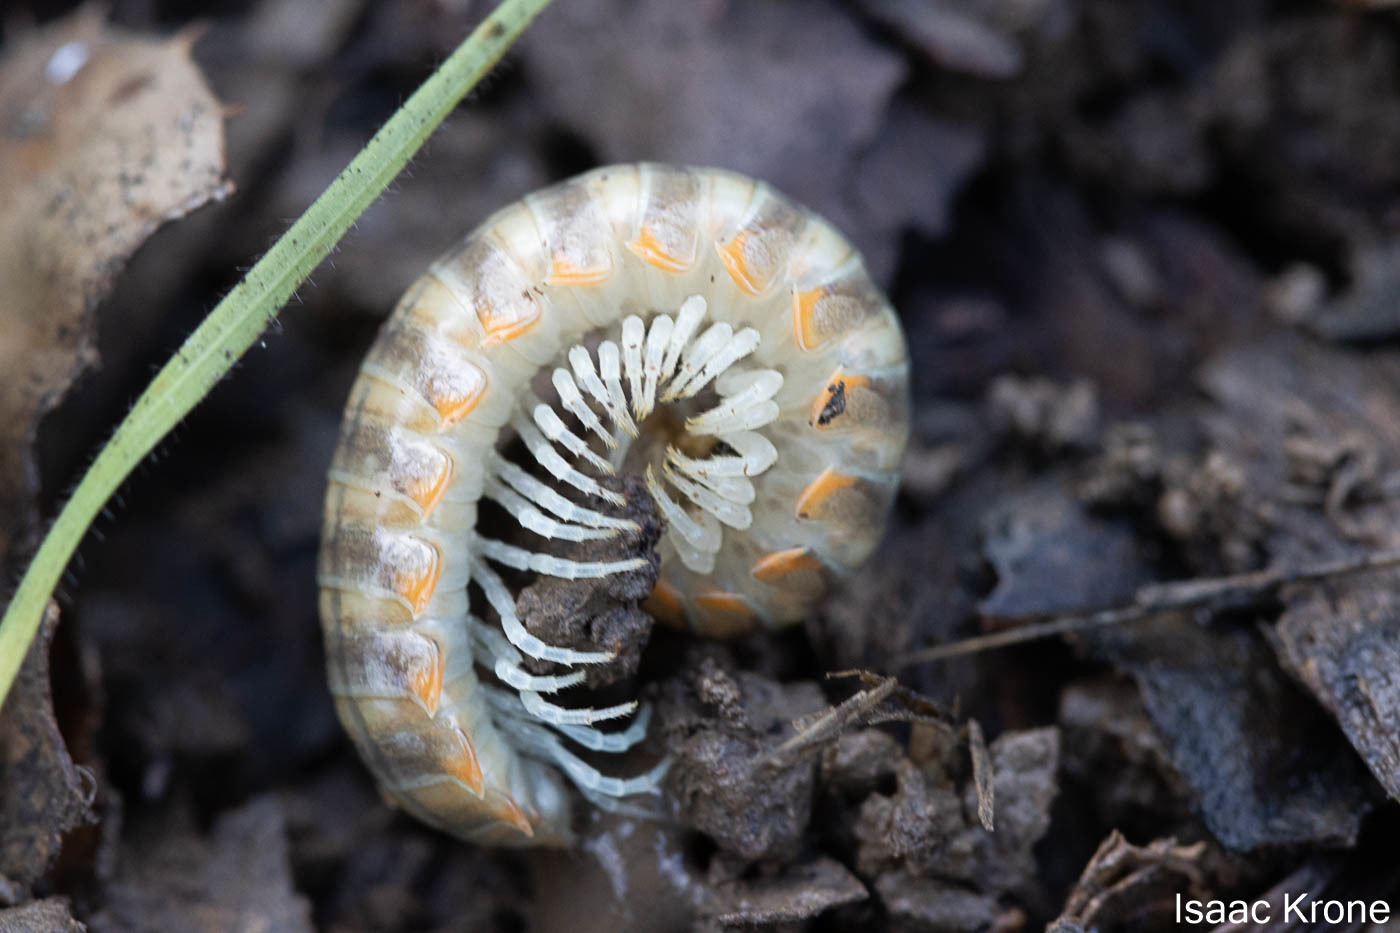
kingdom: Animalia
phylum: Arthropoda
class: Diplopoda
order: Polydesmida
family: Xystodesmidae
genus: Xystocheir
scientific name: Xystocheir dissecta
